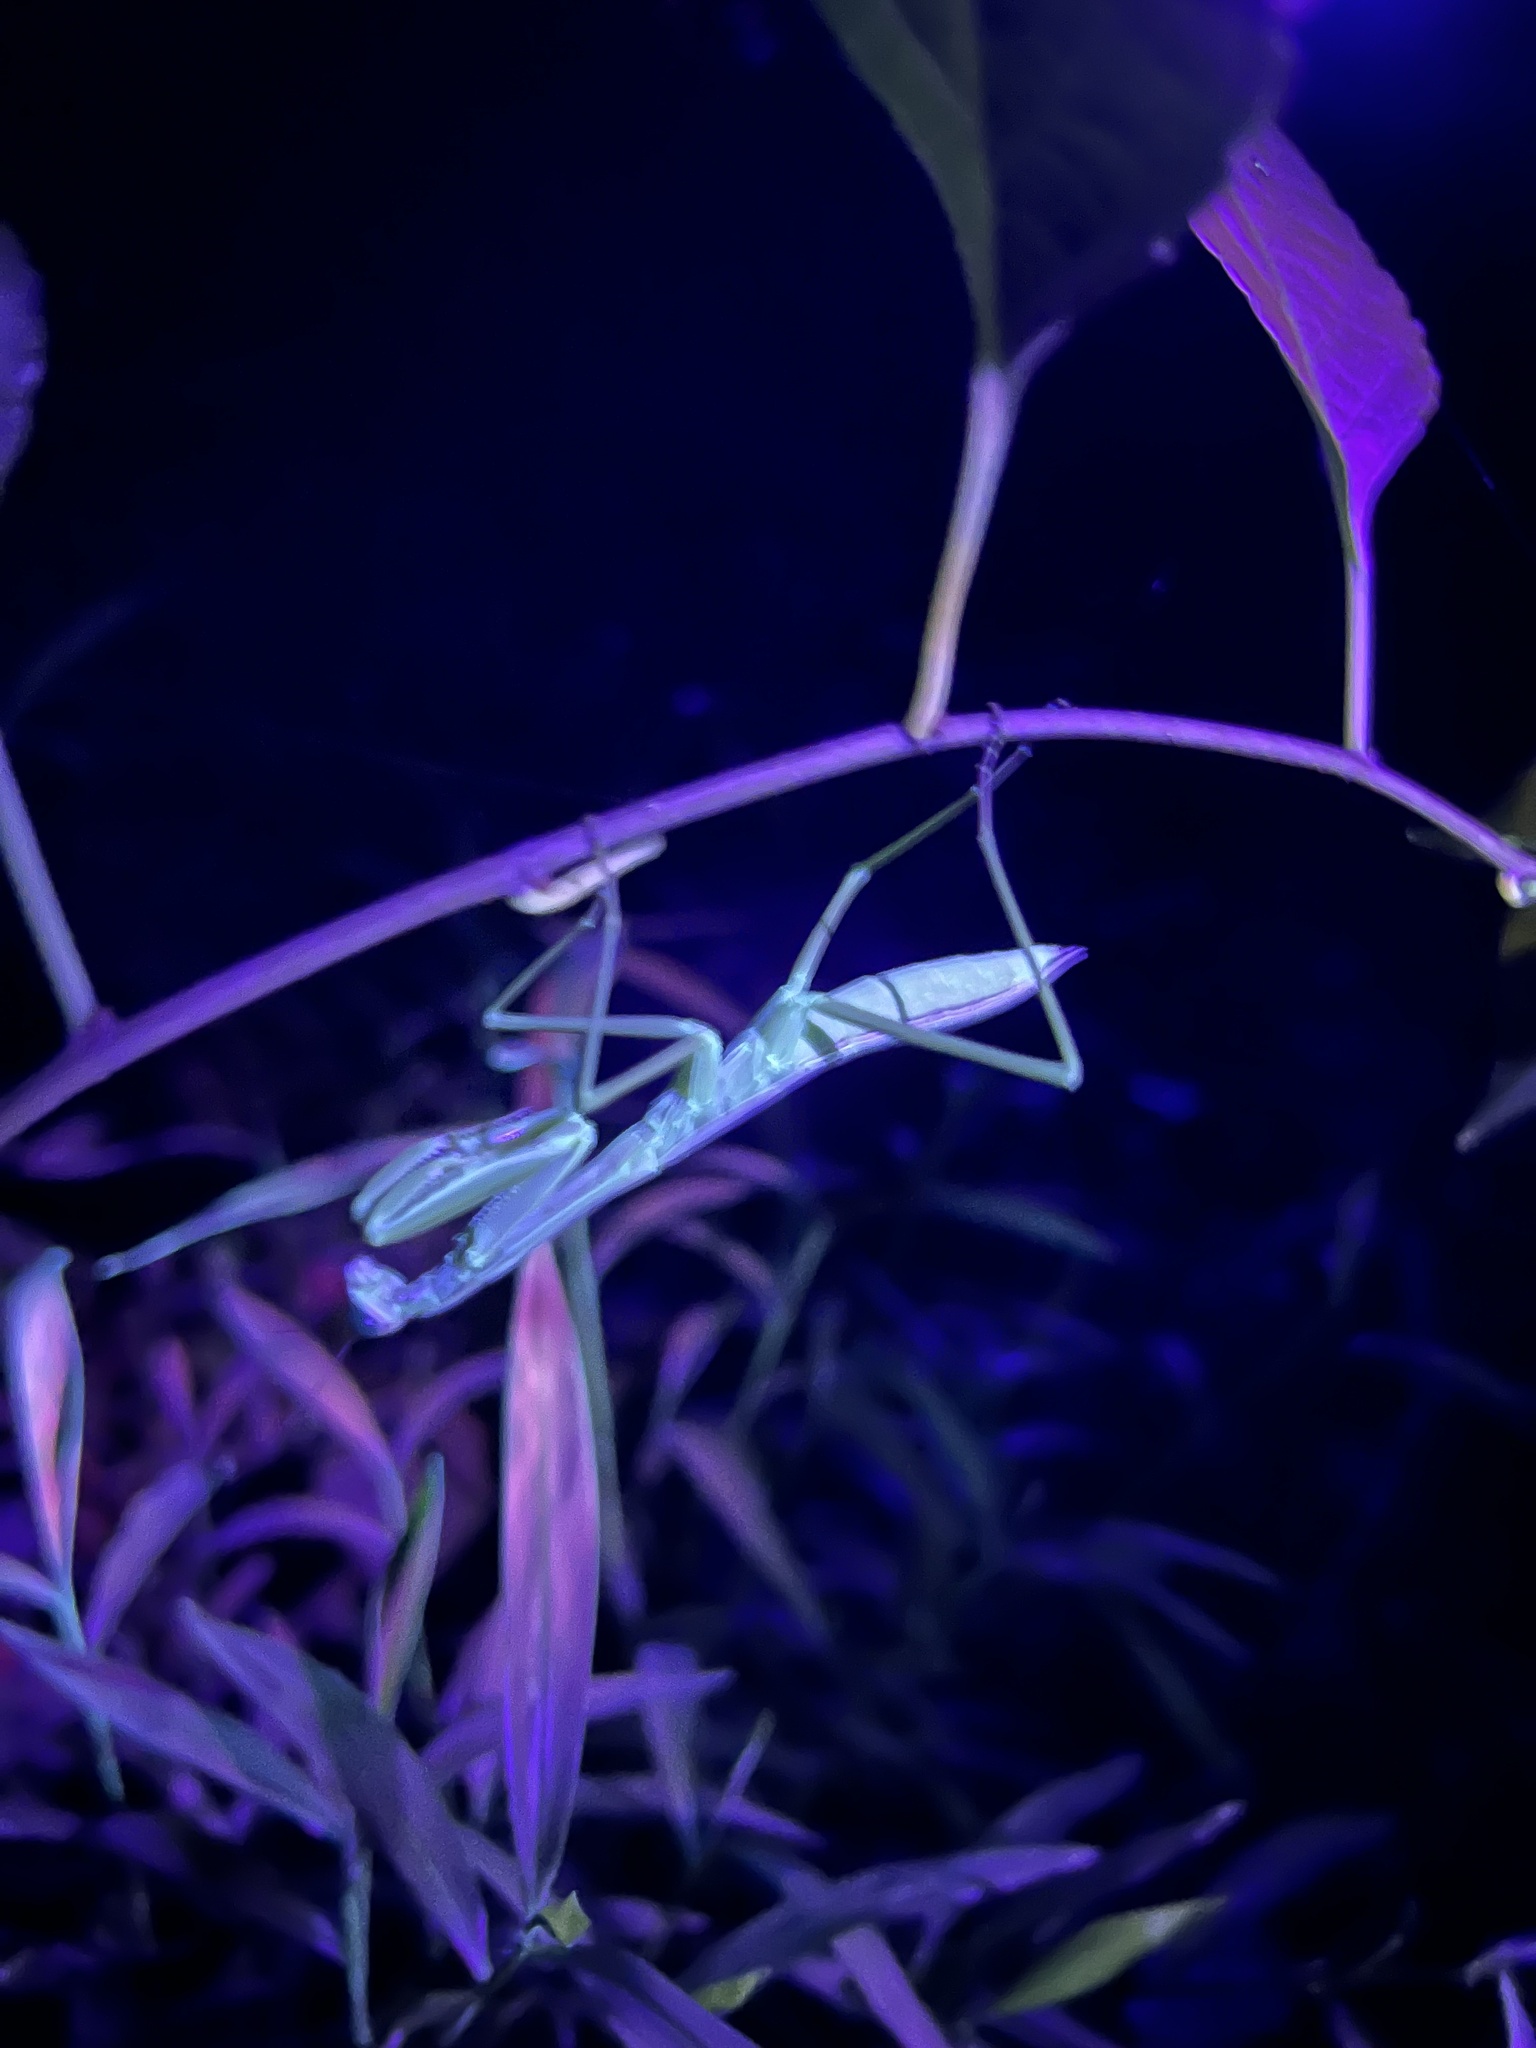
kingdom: Animalia
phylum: Arthropoda
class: Insecta
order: Mantodea
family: Mantidae
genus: Stagmomantis
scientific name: Stagmomantis carolina
